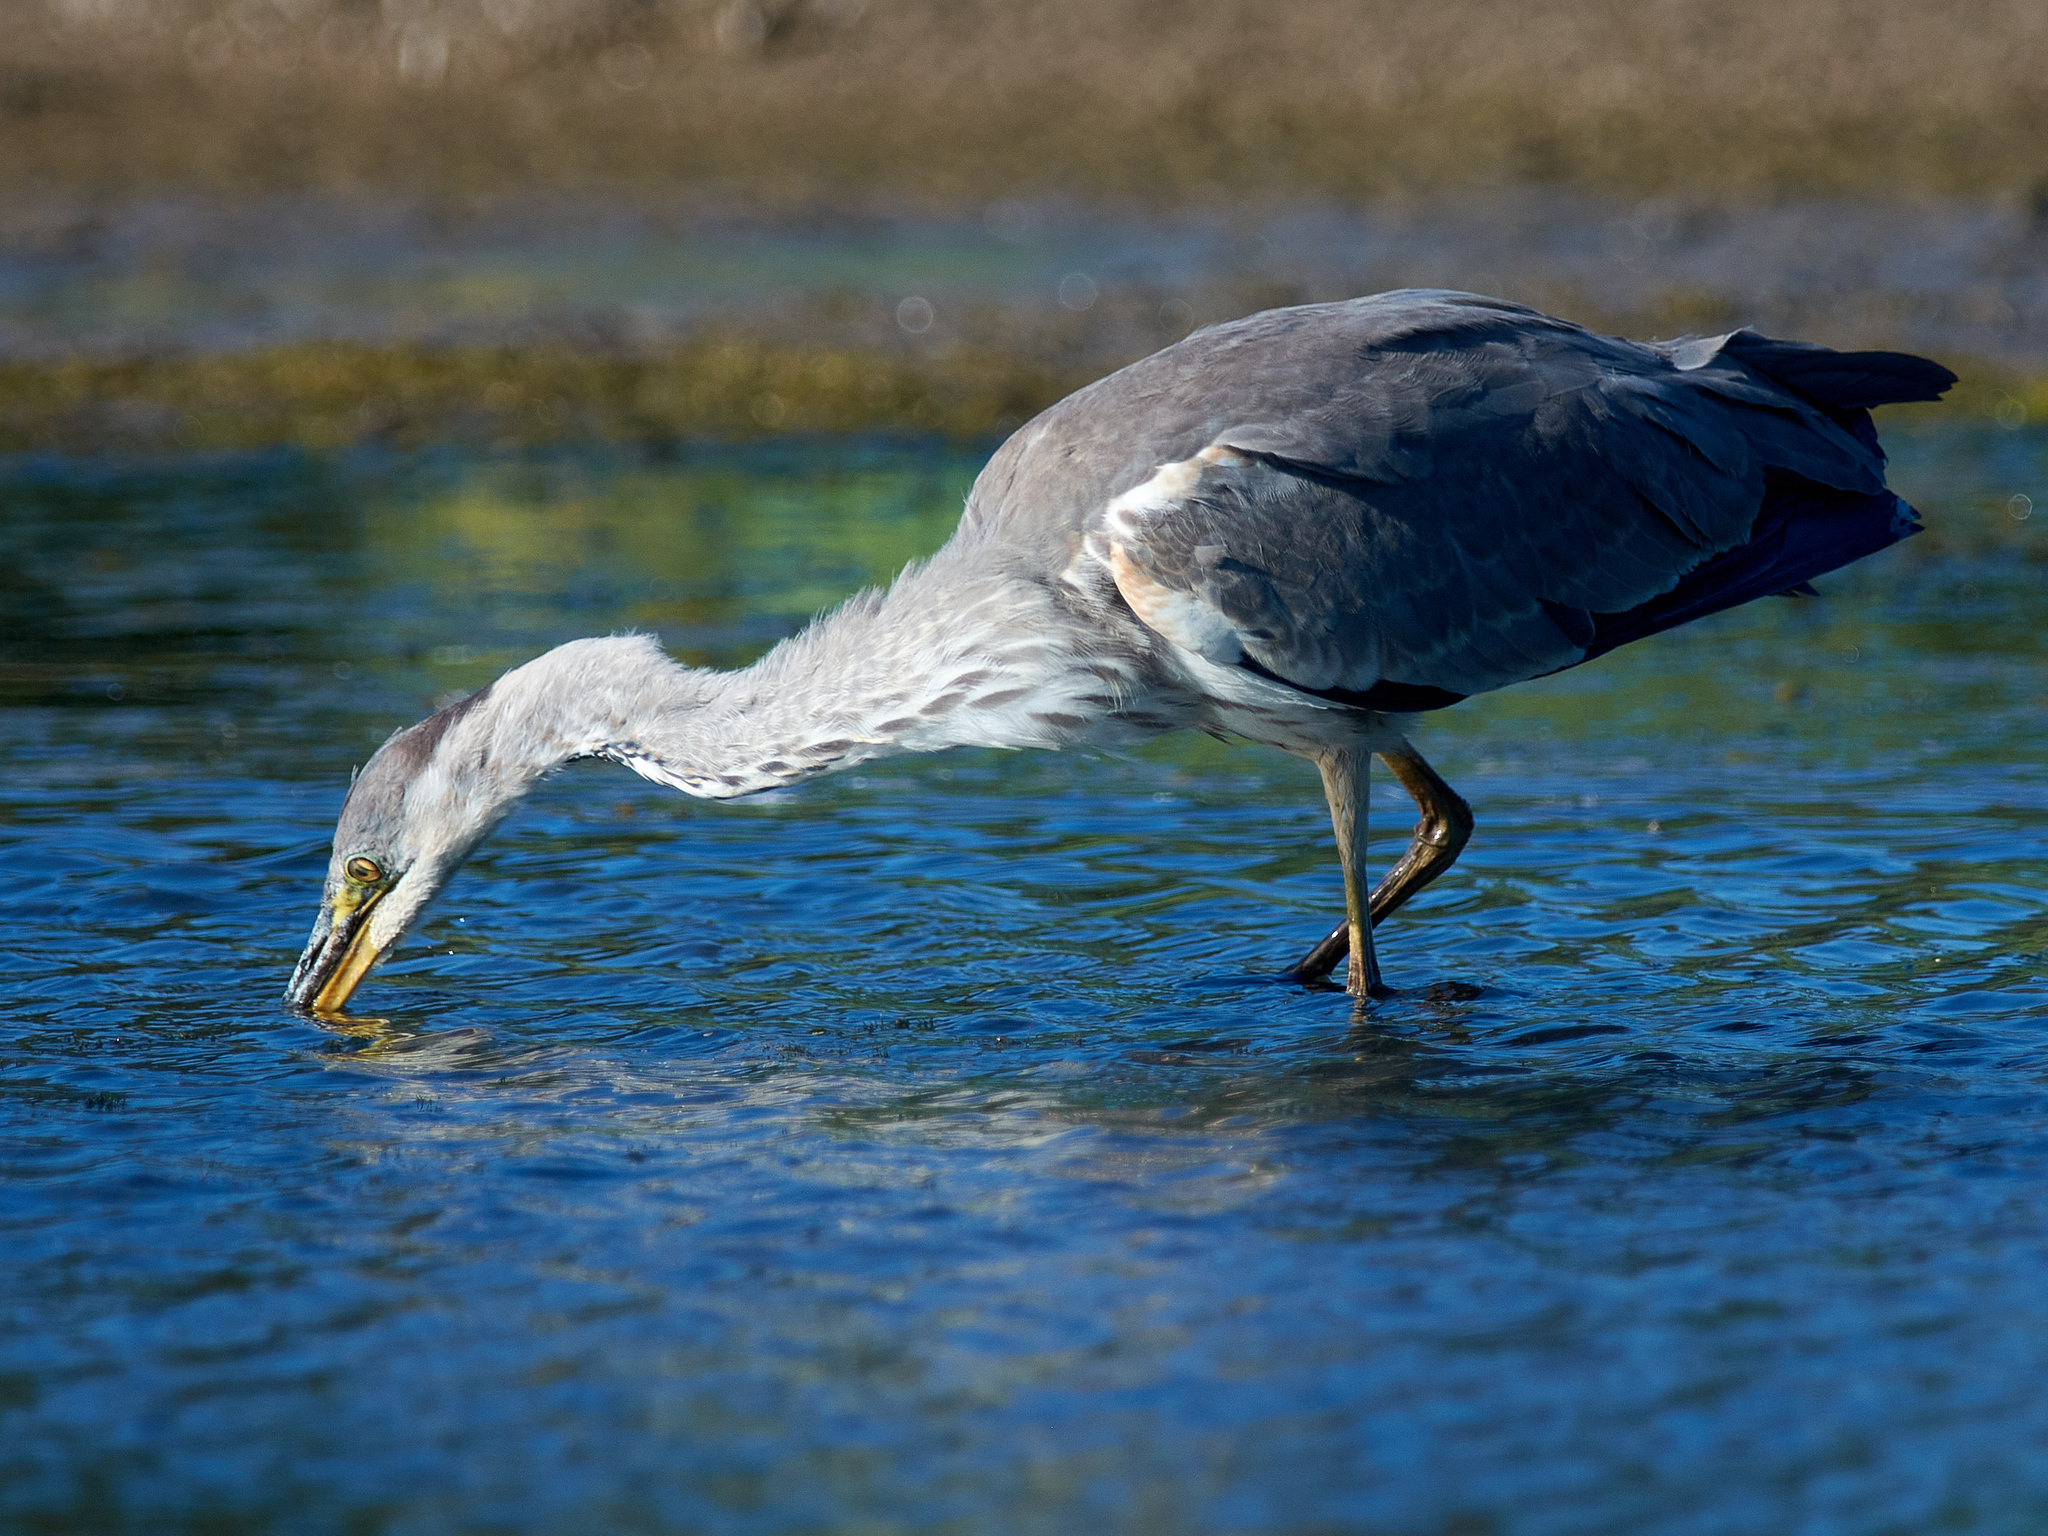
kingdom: Animalia
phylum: Chordata
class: Aves
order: Pelecaniformes
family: Ardeidae
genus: Ardea
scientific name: Ardea cinerea
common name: Grey heron
